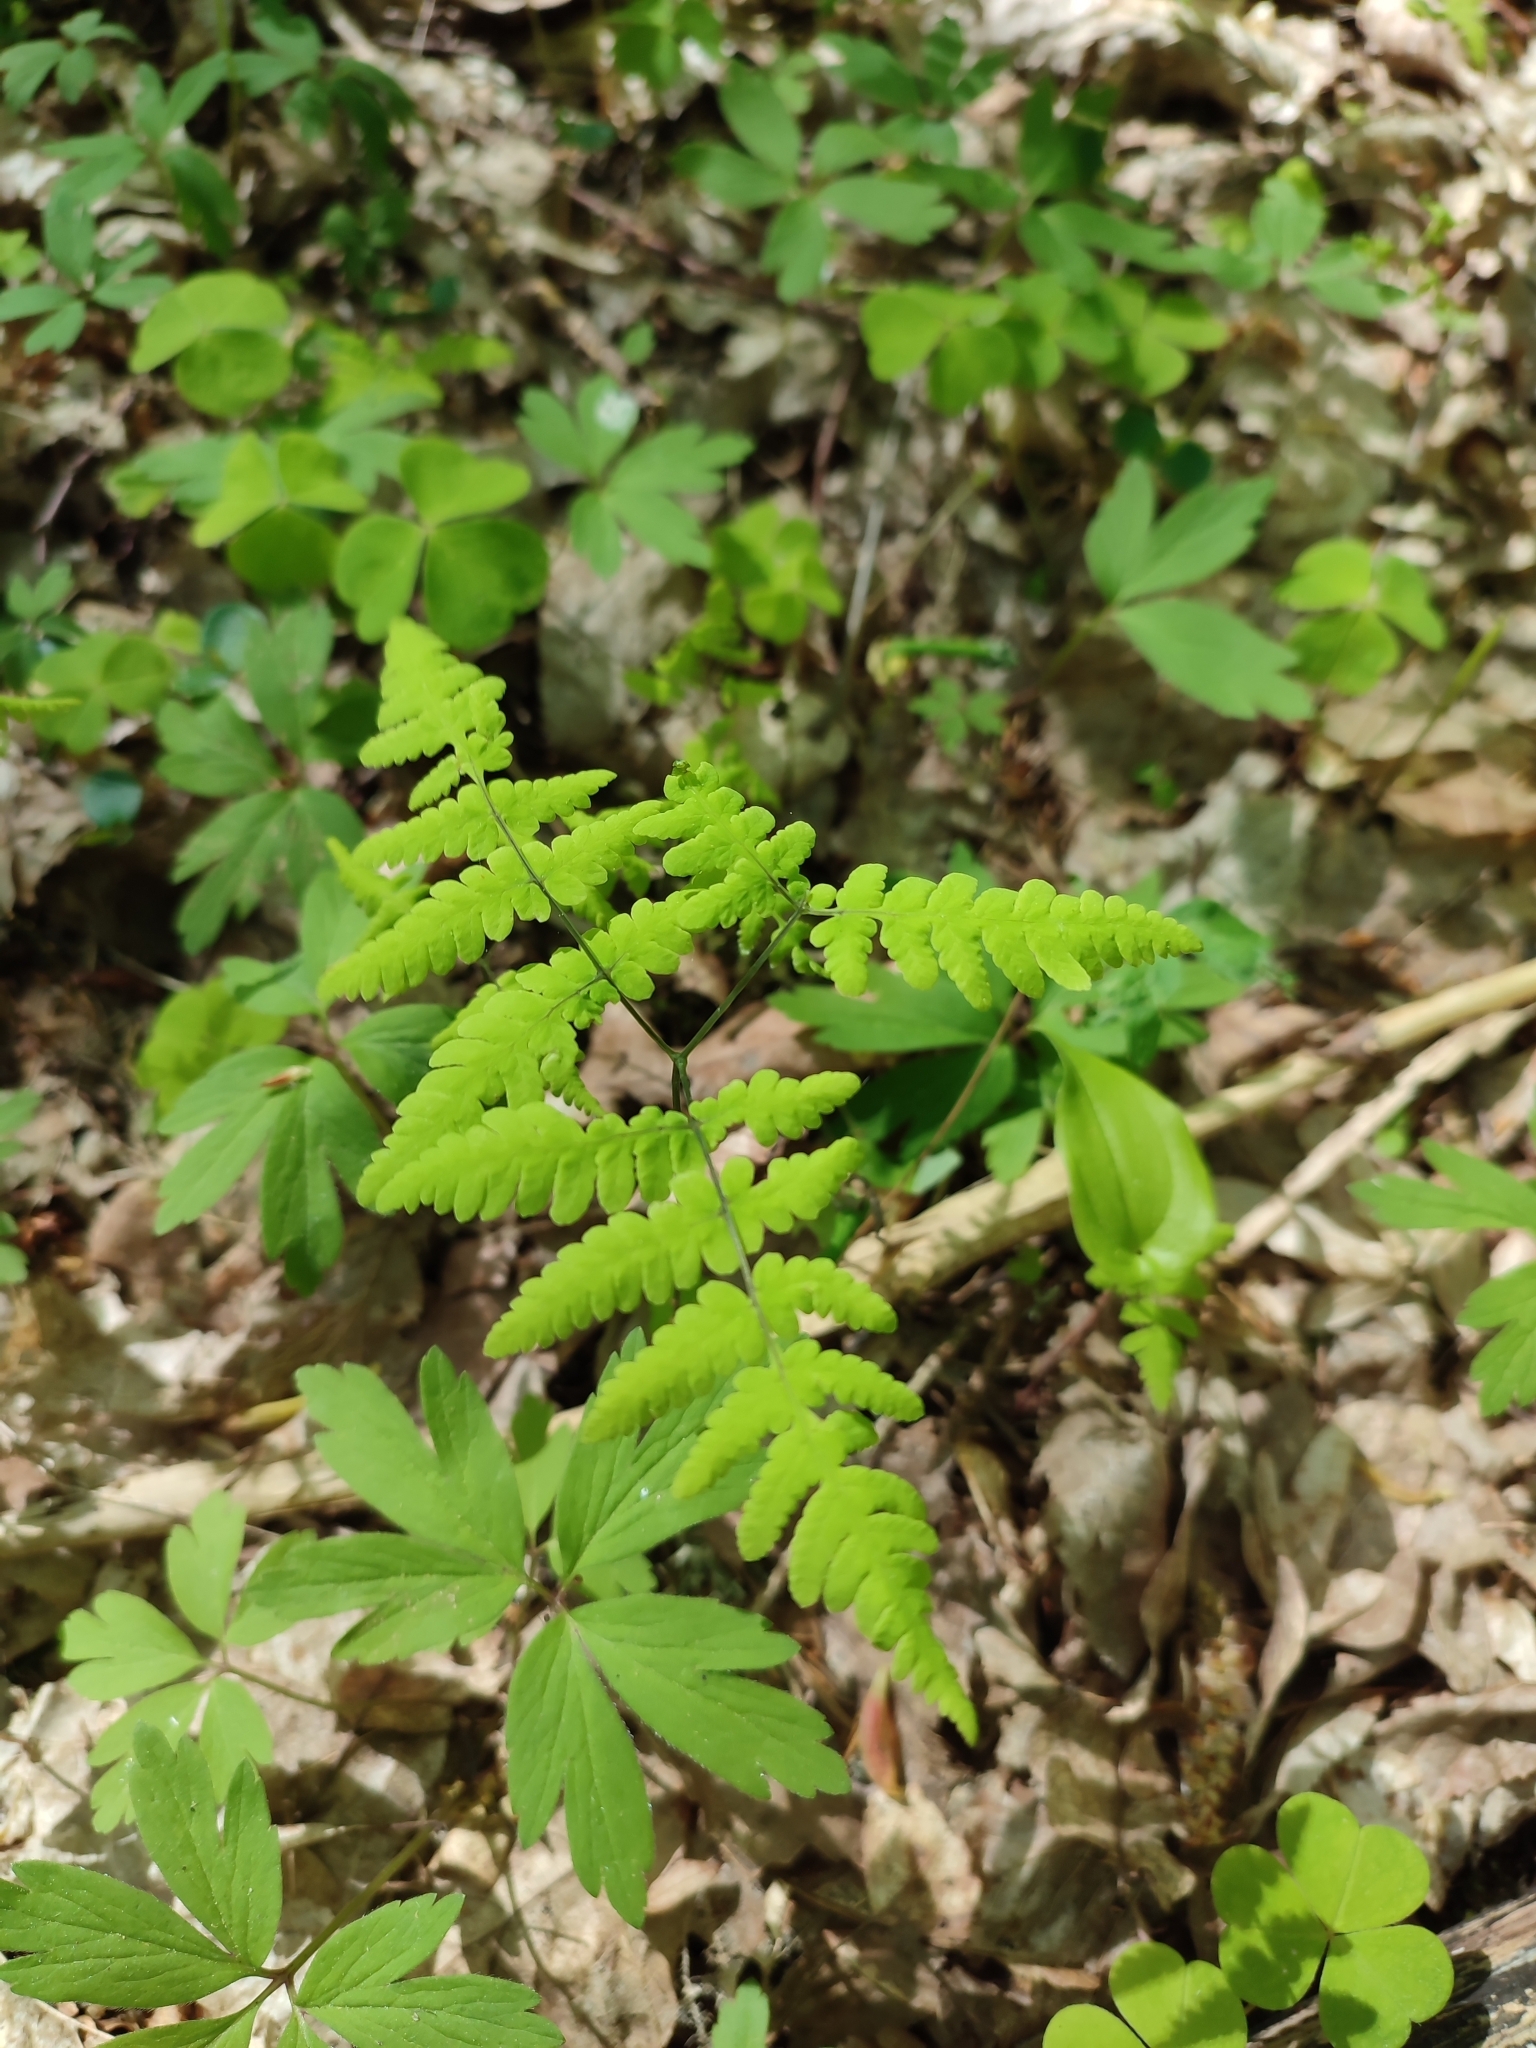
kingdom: Plantae
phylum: Tracheophyta
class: Polypodiopsida
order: Polypodiales
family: Cystopteridaceae
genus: Gymnocarpium
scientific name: Gymnocarpium dryopteris
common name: Oak fern
